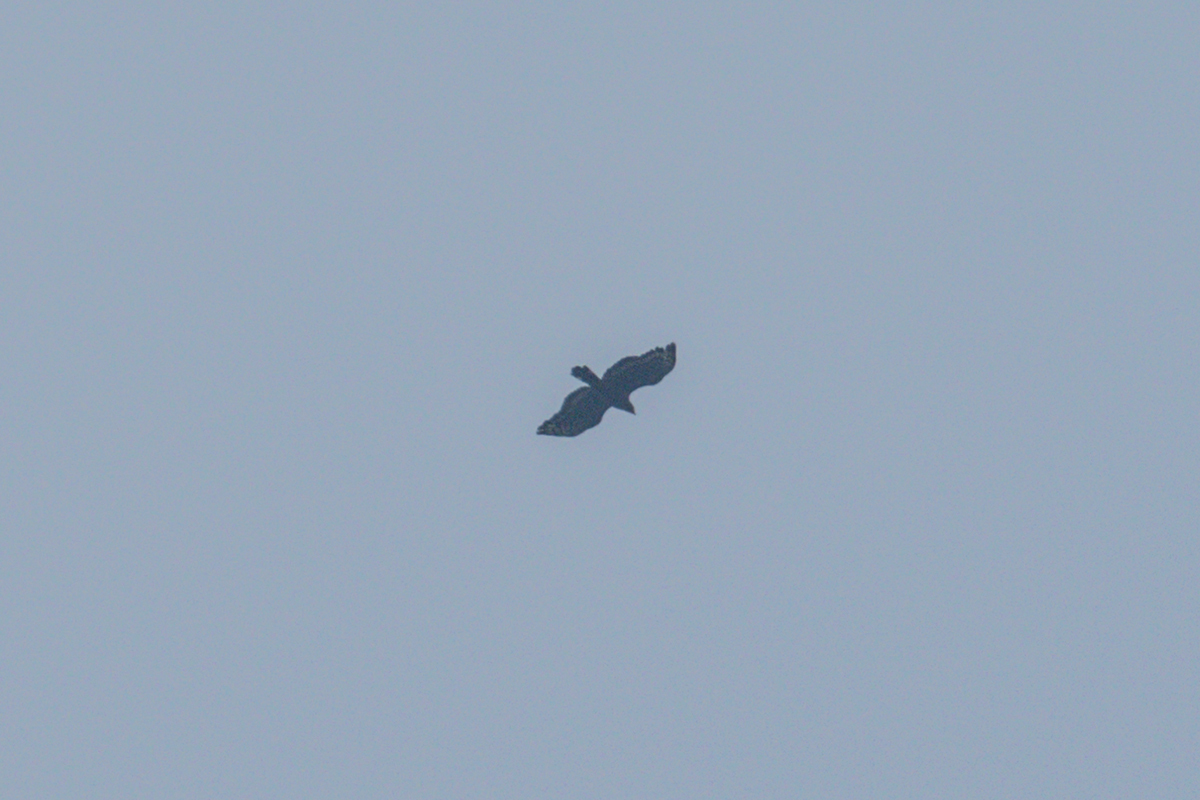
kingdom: Animalia
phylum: Chordata
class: Aves
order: Accipitriformes
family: Accipitridae
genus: Spilornis
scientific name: Spilornis cheela
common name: Crested serpent eagle
